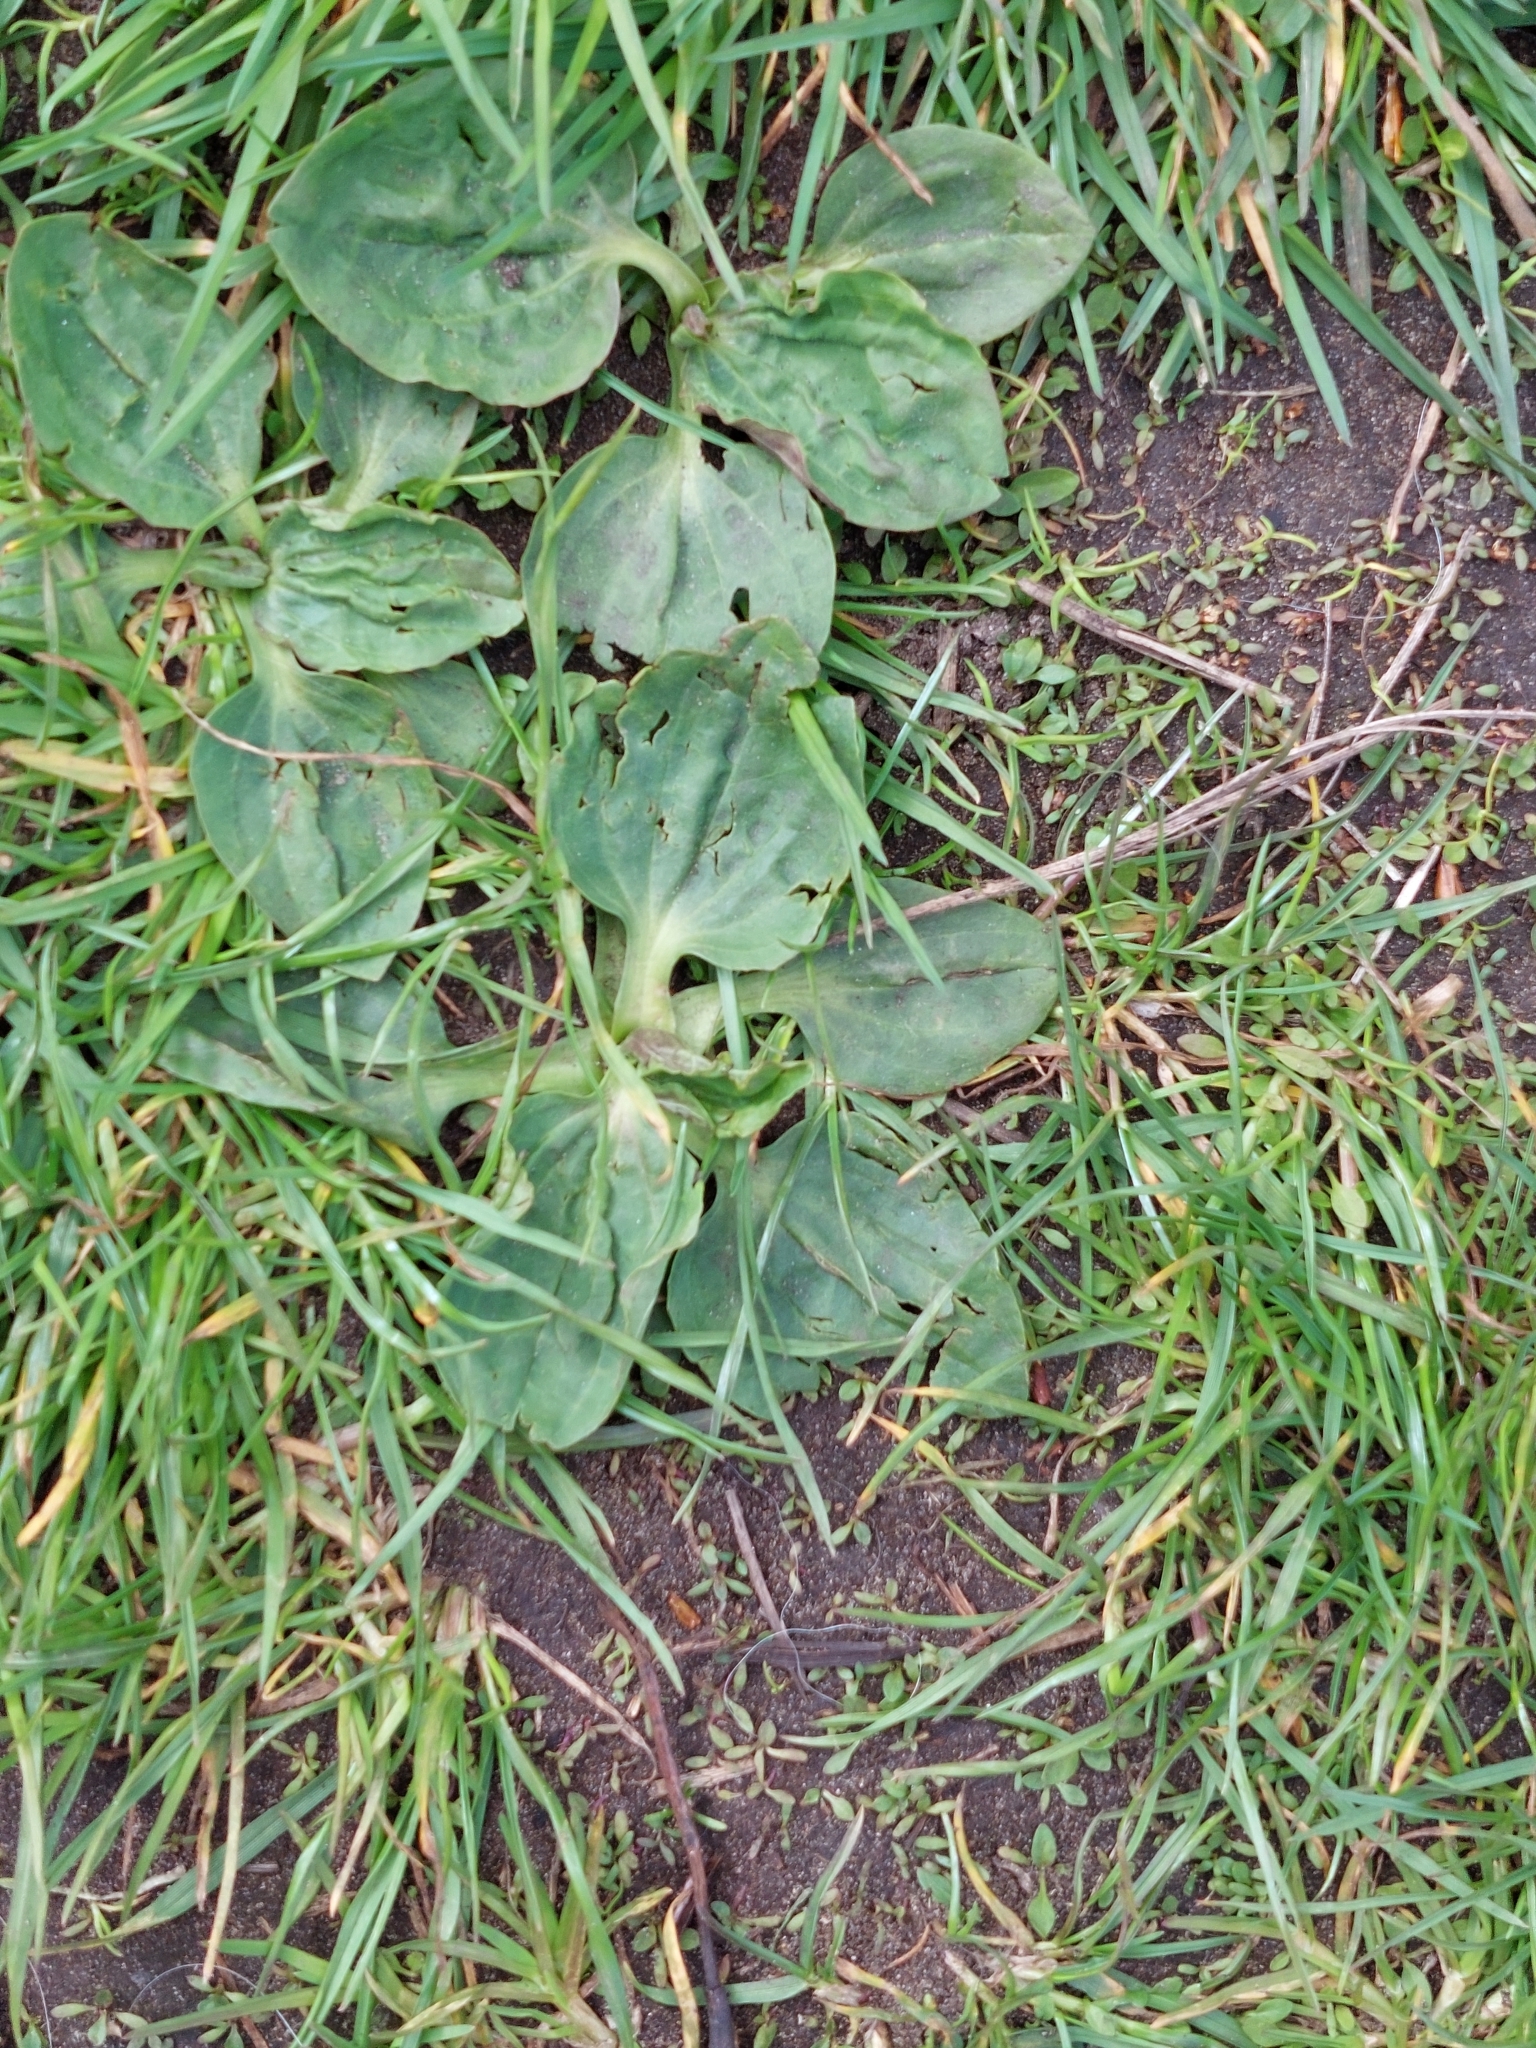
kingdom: Plantae
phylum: Tracheophyta
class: Magnoliopsida
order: Lamiales
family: Plantaginaceae
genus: Plantago
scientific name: Plantago major
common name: Common plantain
